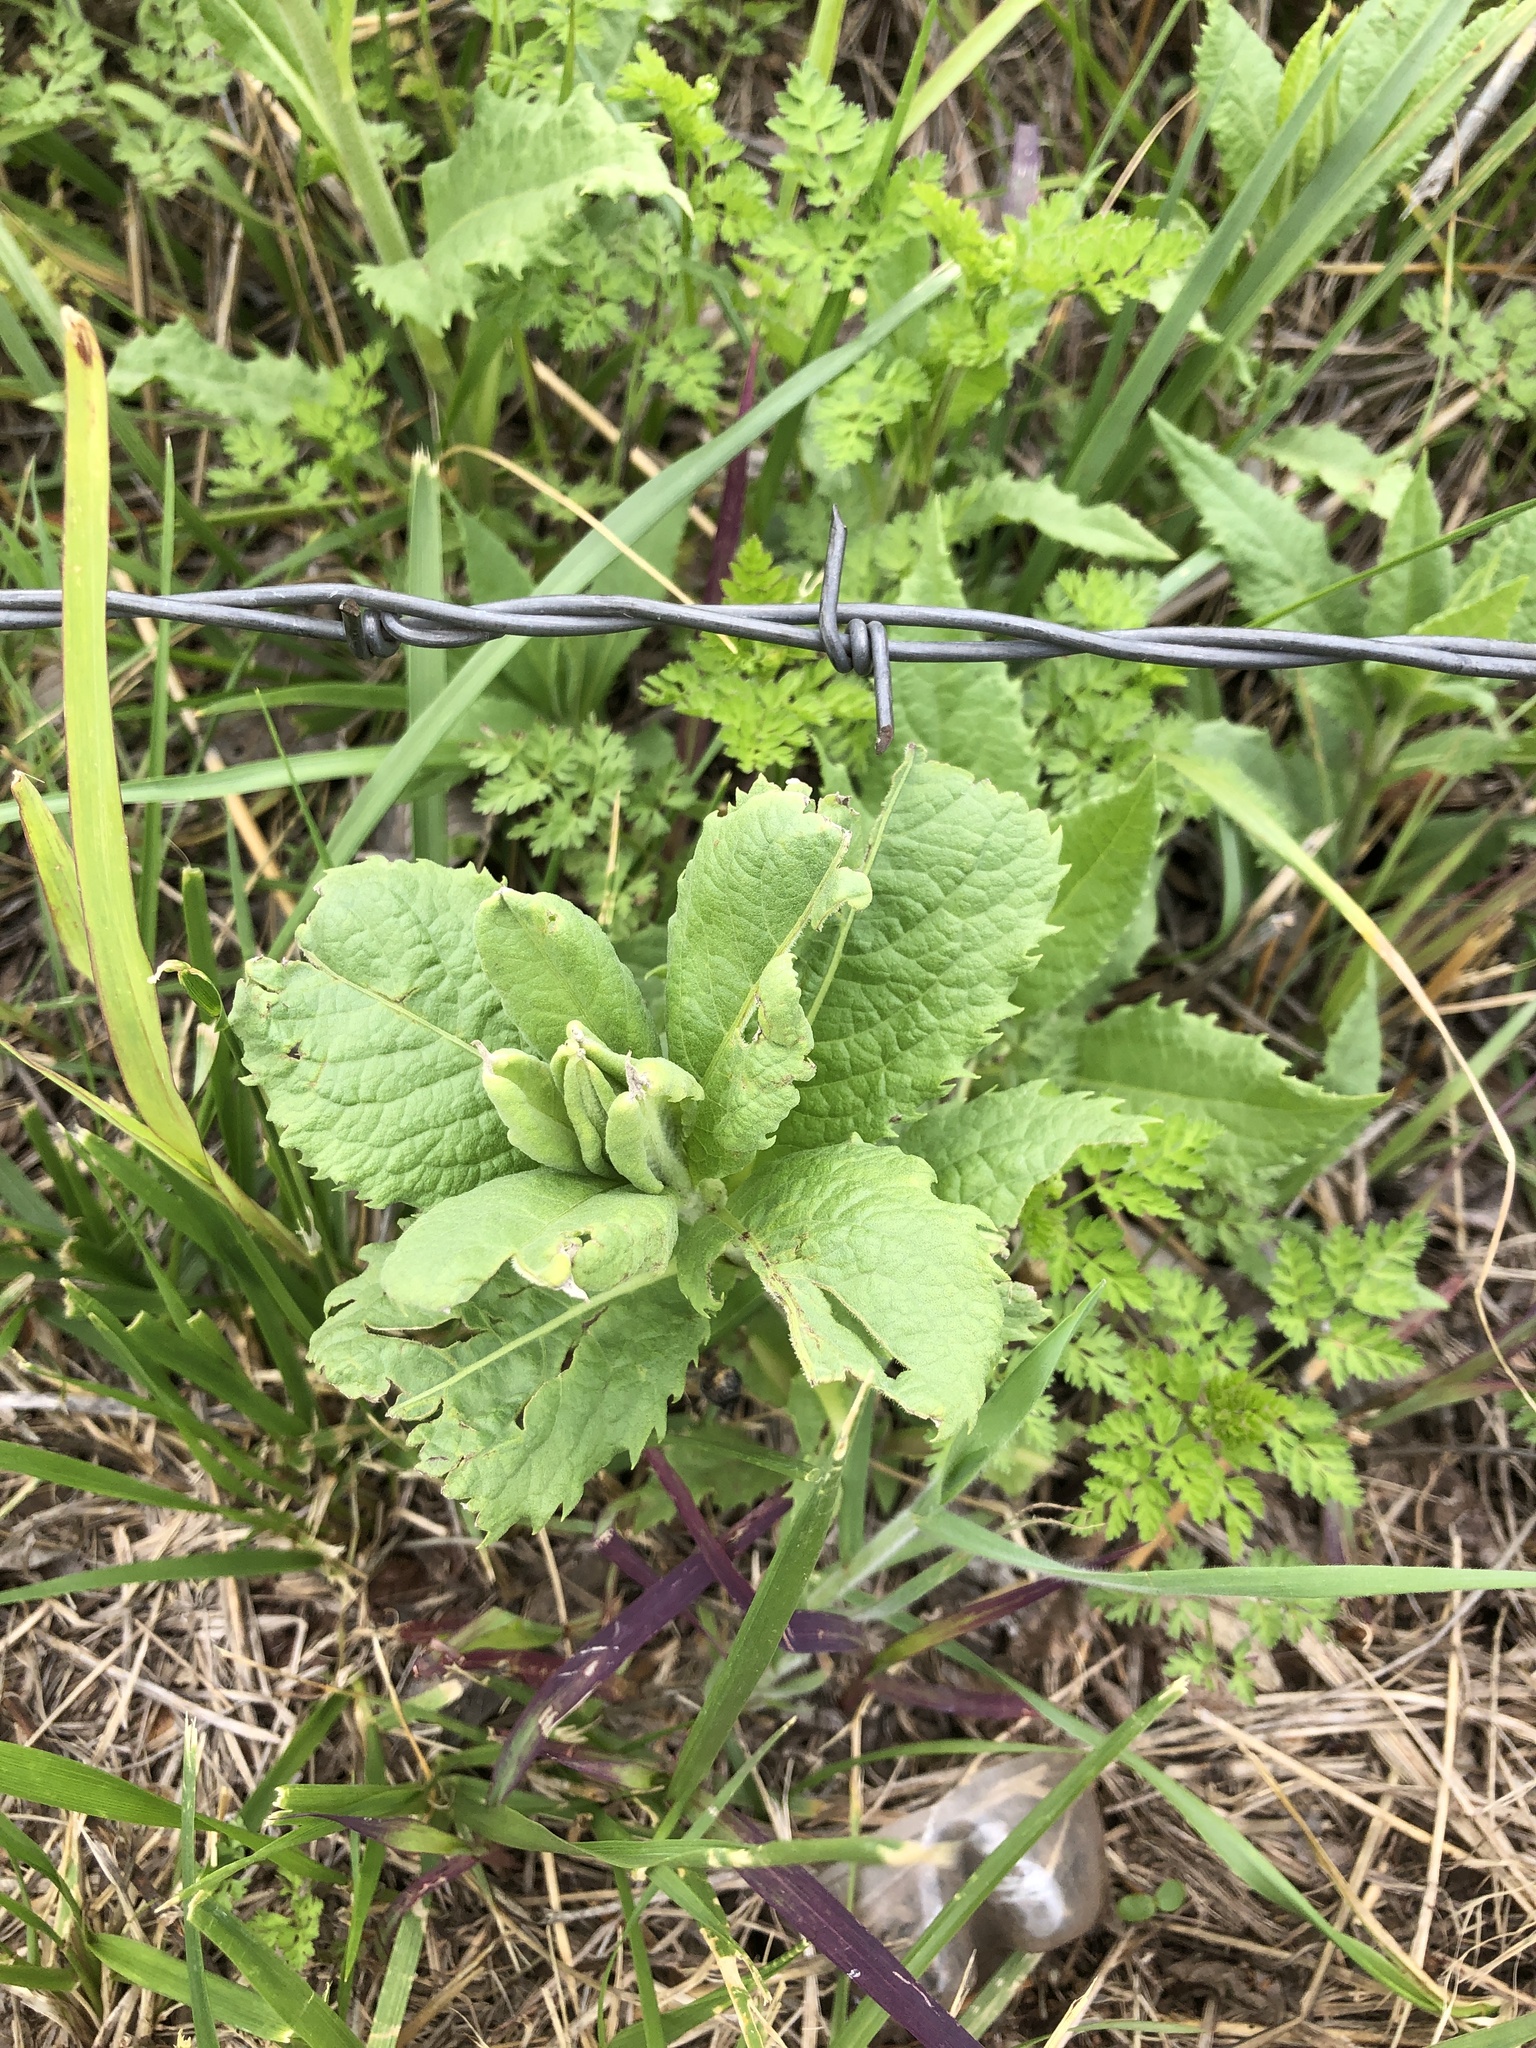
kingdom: Plantae
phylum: Tracheophyta
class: Magnoliopsida
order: Asterales
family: Asteraceae
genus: Vernonia
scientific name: Vernonia baldwinii
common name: Western ironweed
